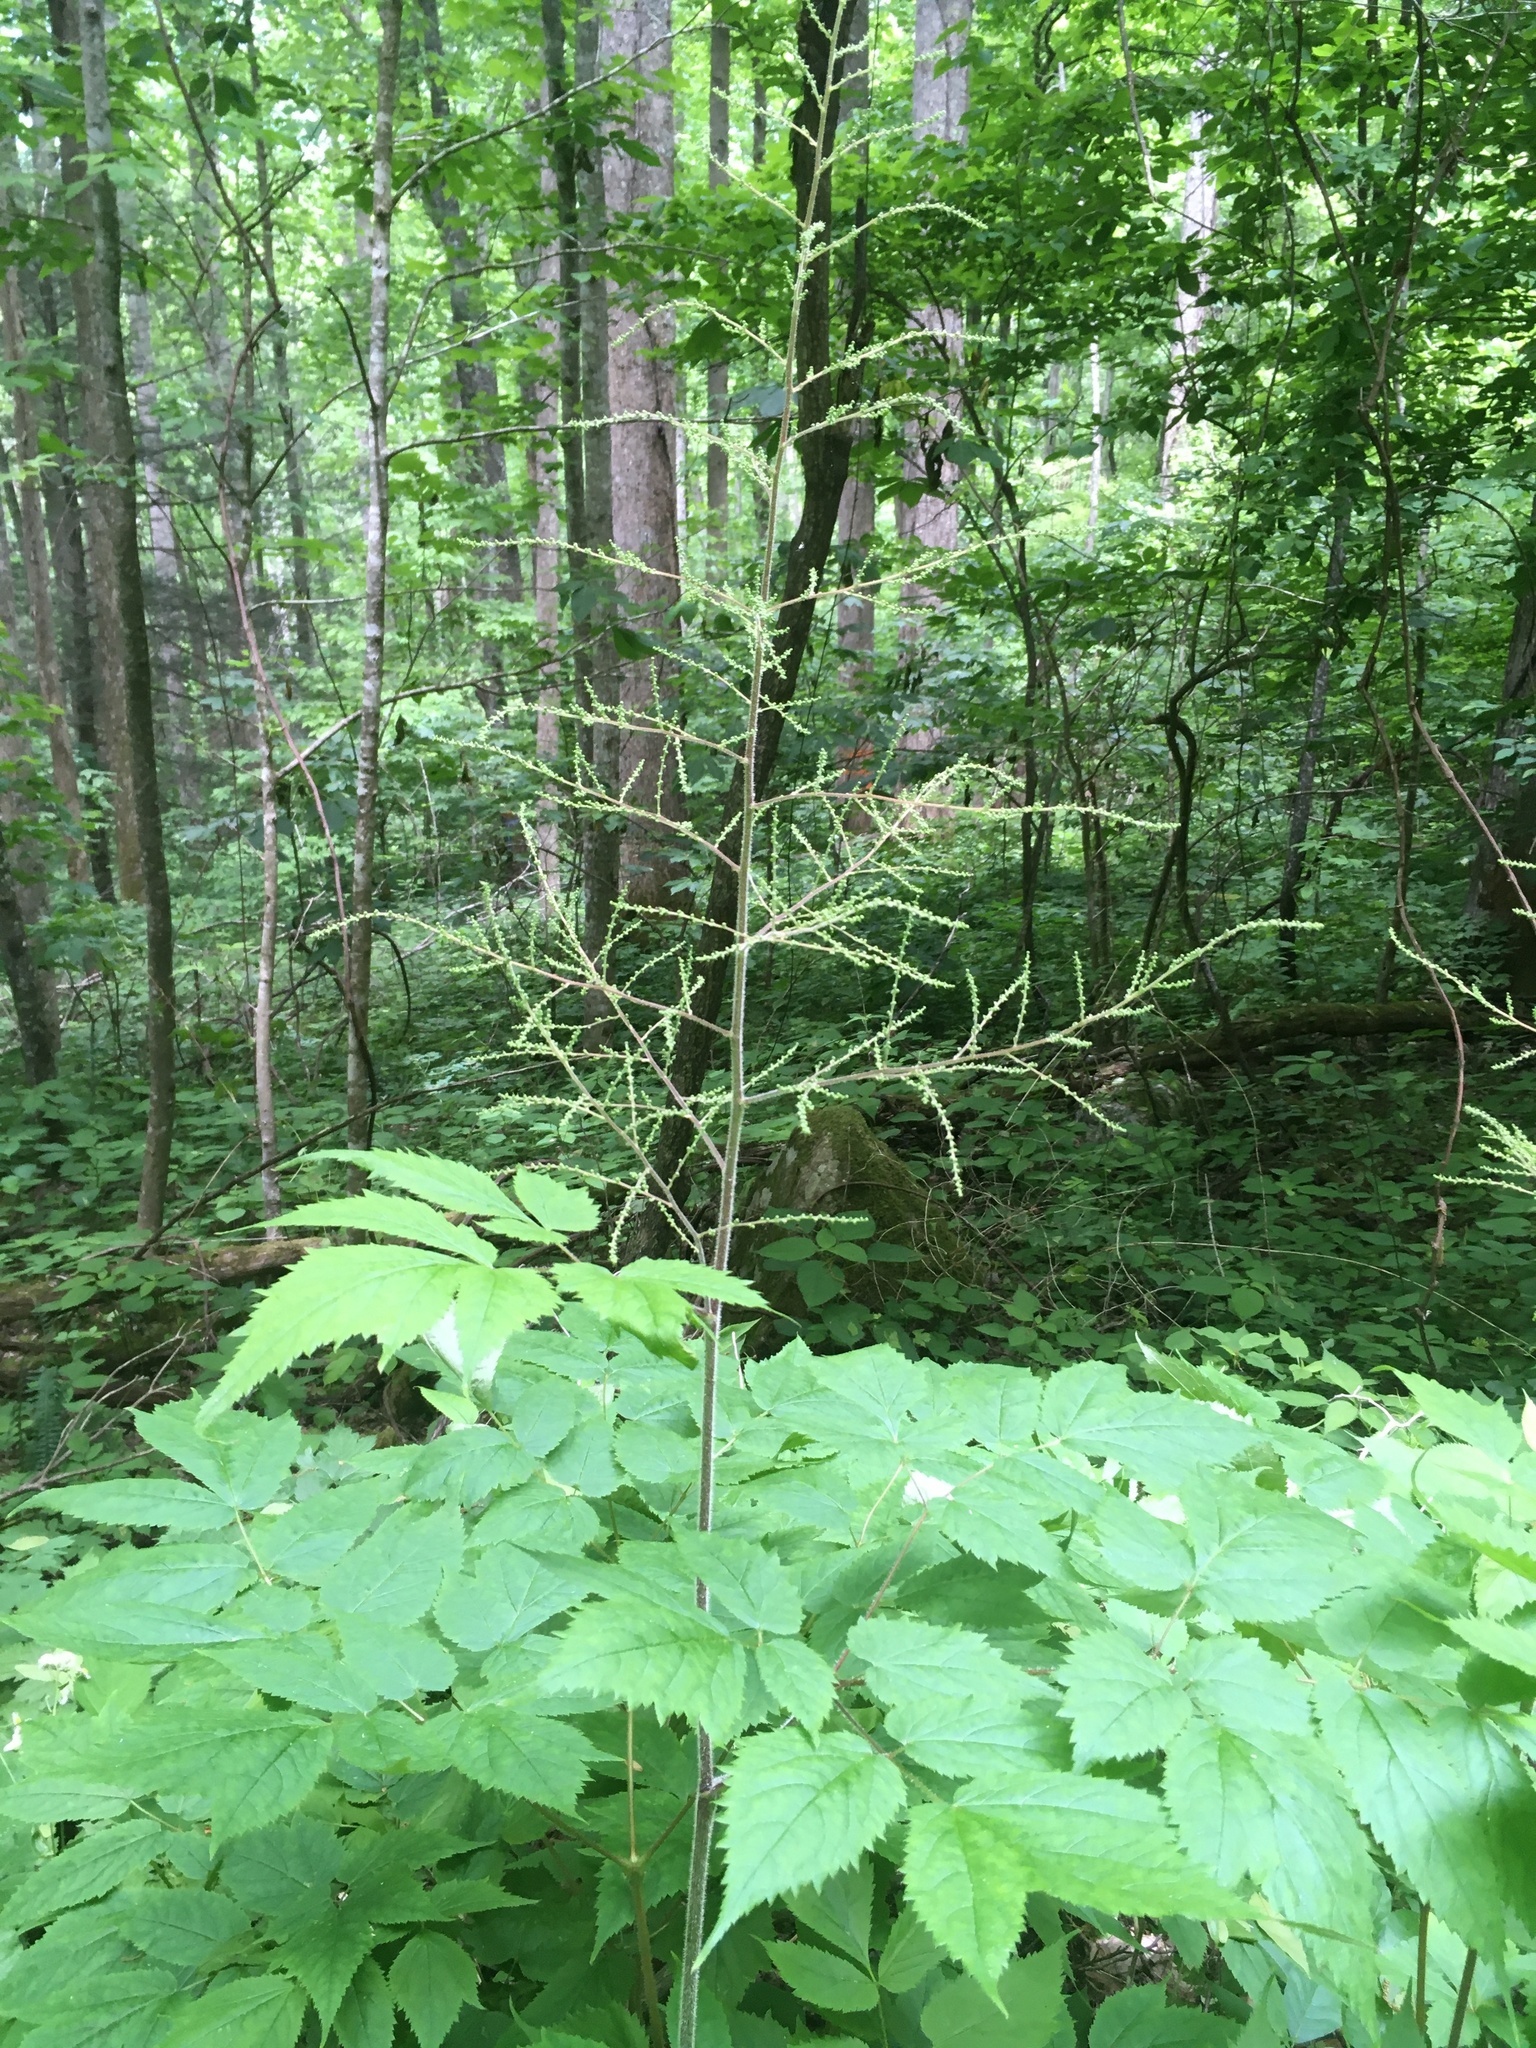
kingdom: Plantae
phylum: Tracheophyta
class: Magnoliopsida
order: Saxifragales
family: Saxifragaceae
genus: Astilbe
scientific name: Astilbe biternata
